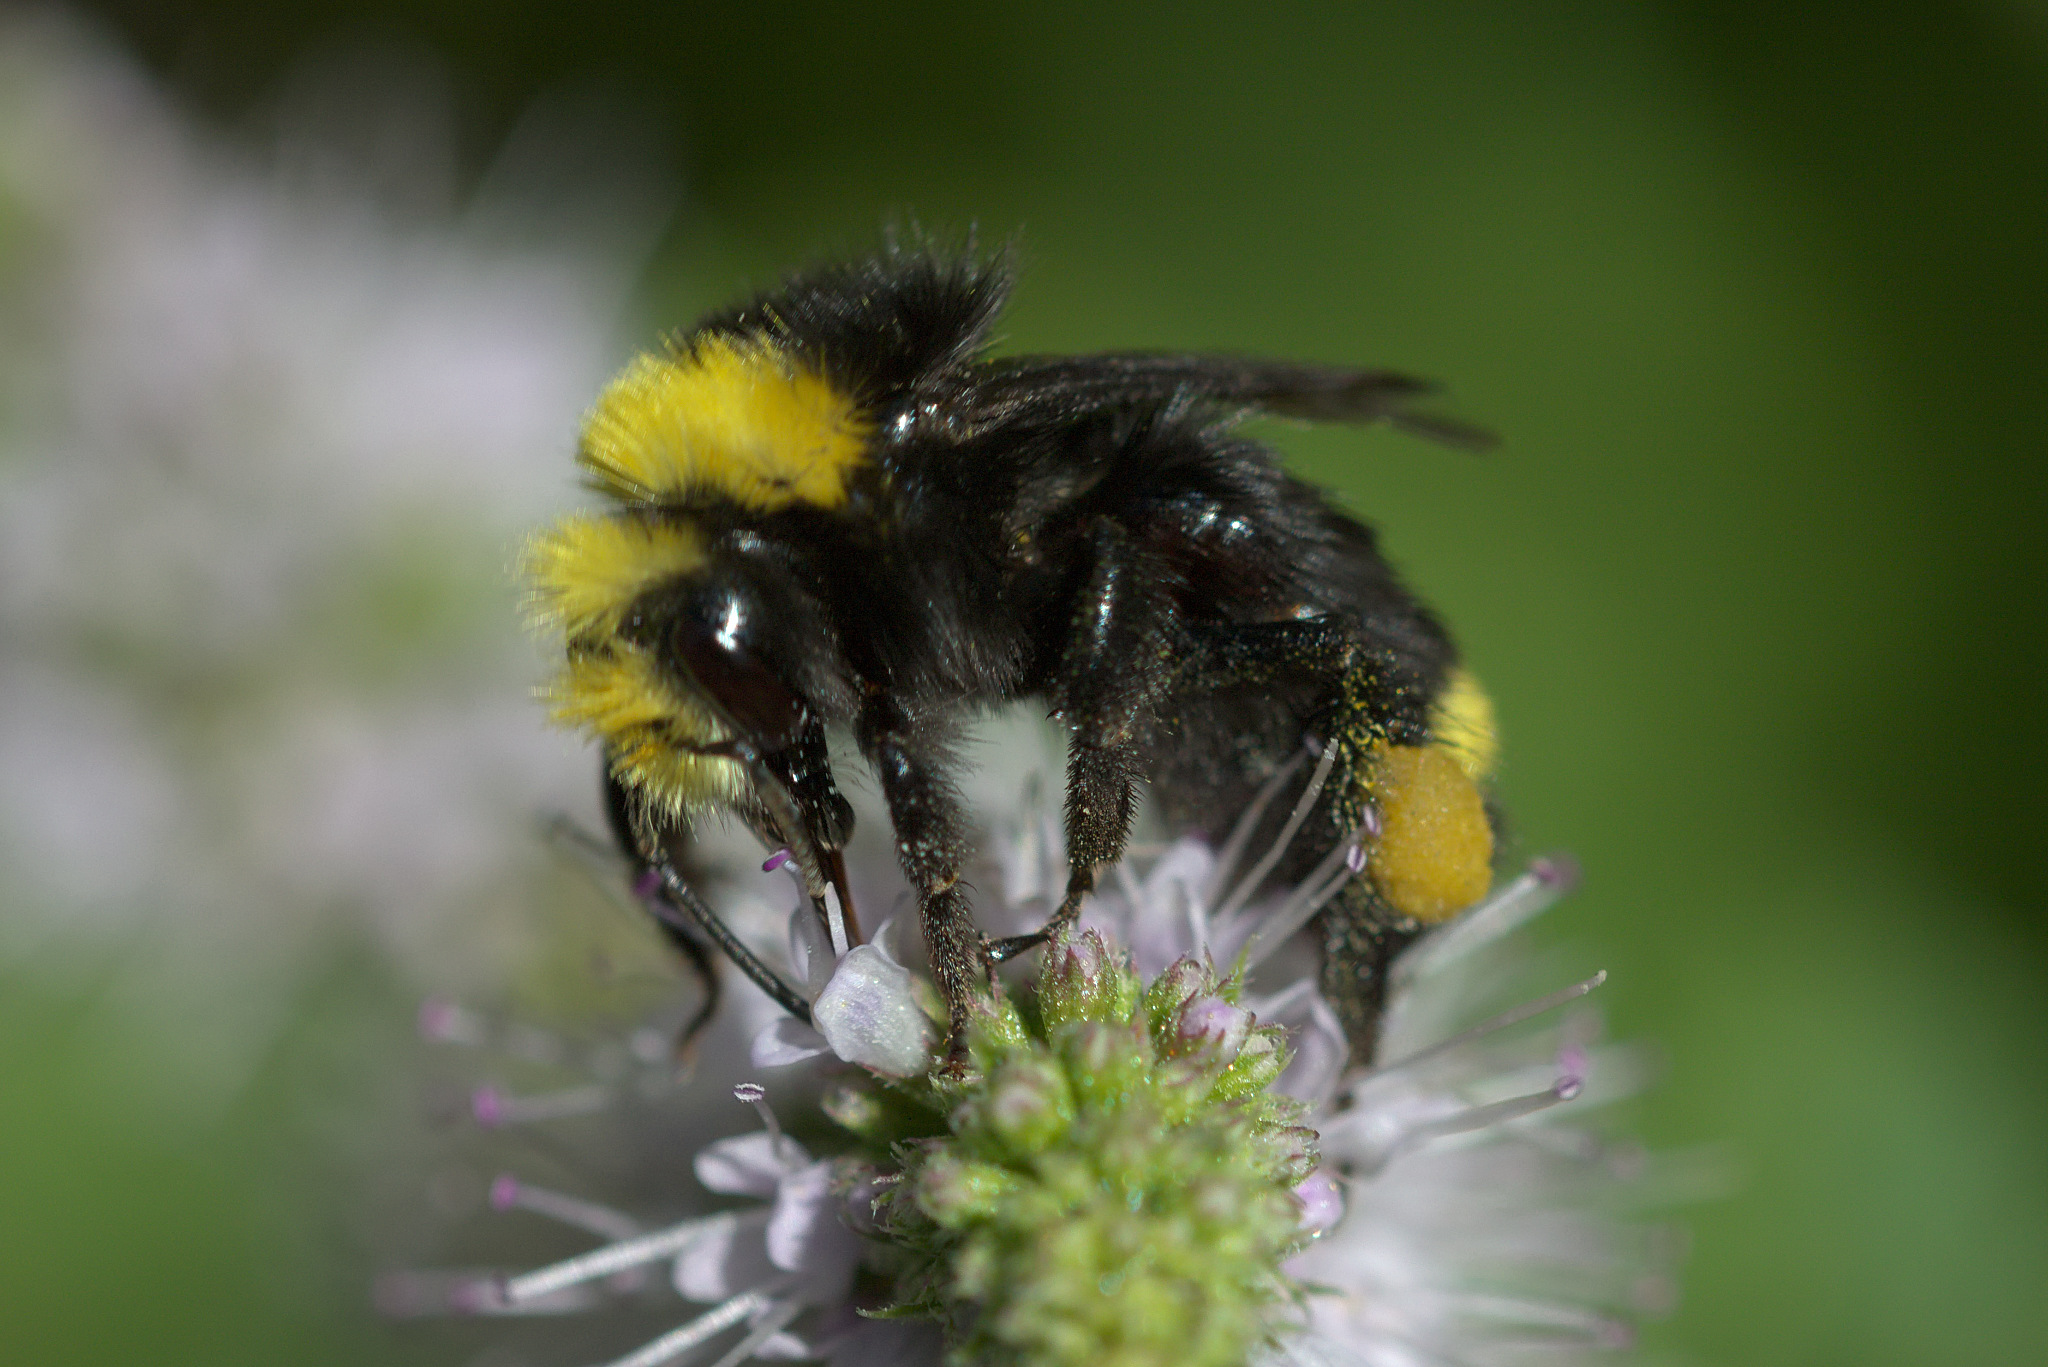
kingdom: Animalia
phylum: Arthropoda
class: Insecta
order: Hymenoptera
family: Apidae
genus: Bombus
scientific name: Bombus vosnesenskii
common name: Vosnesensky bumble bee
